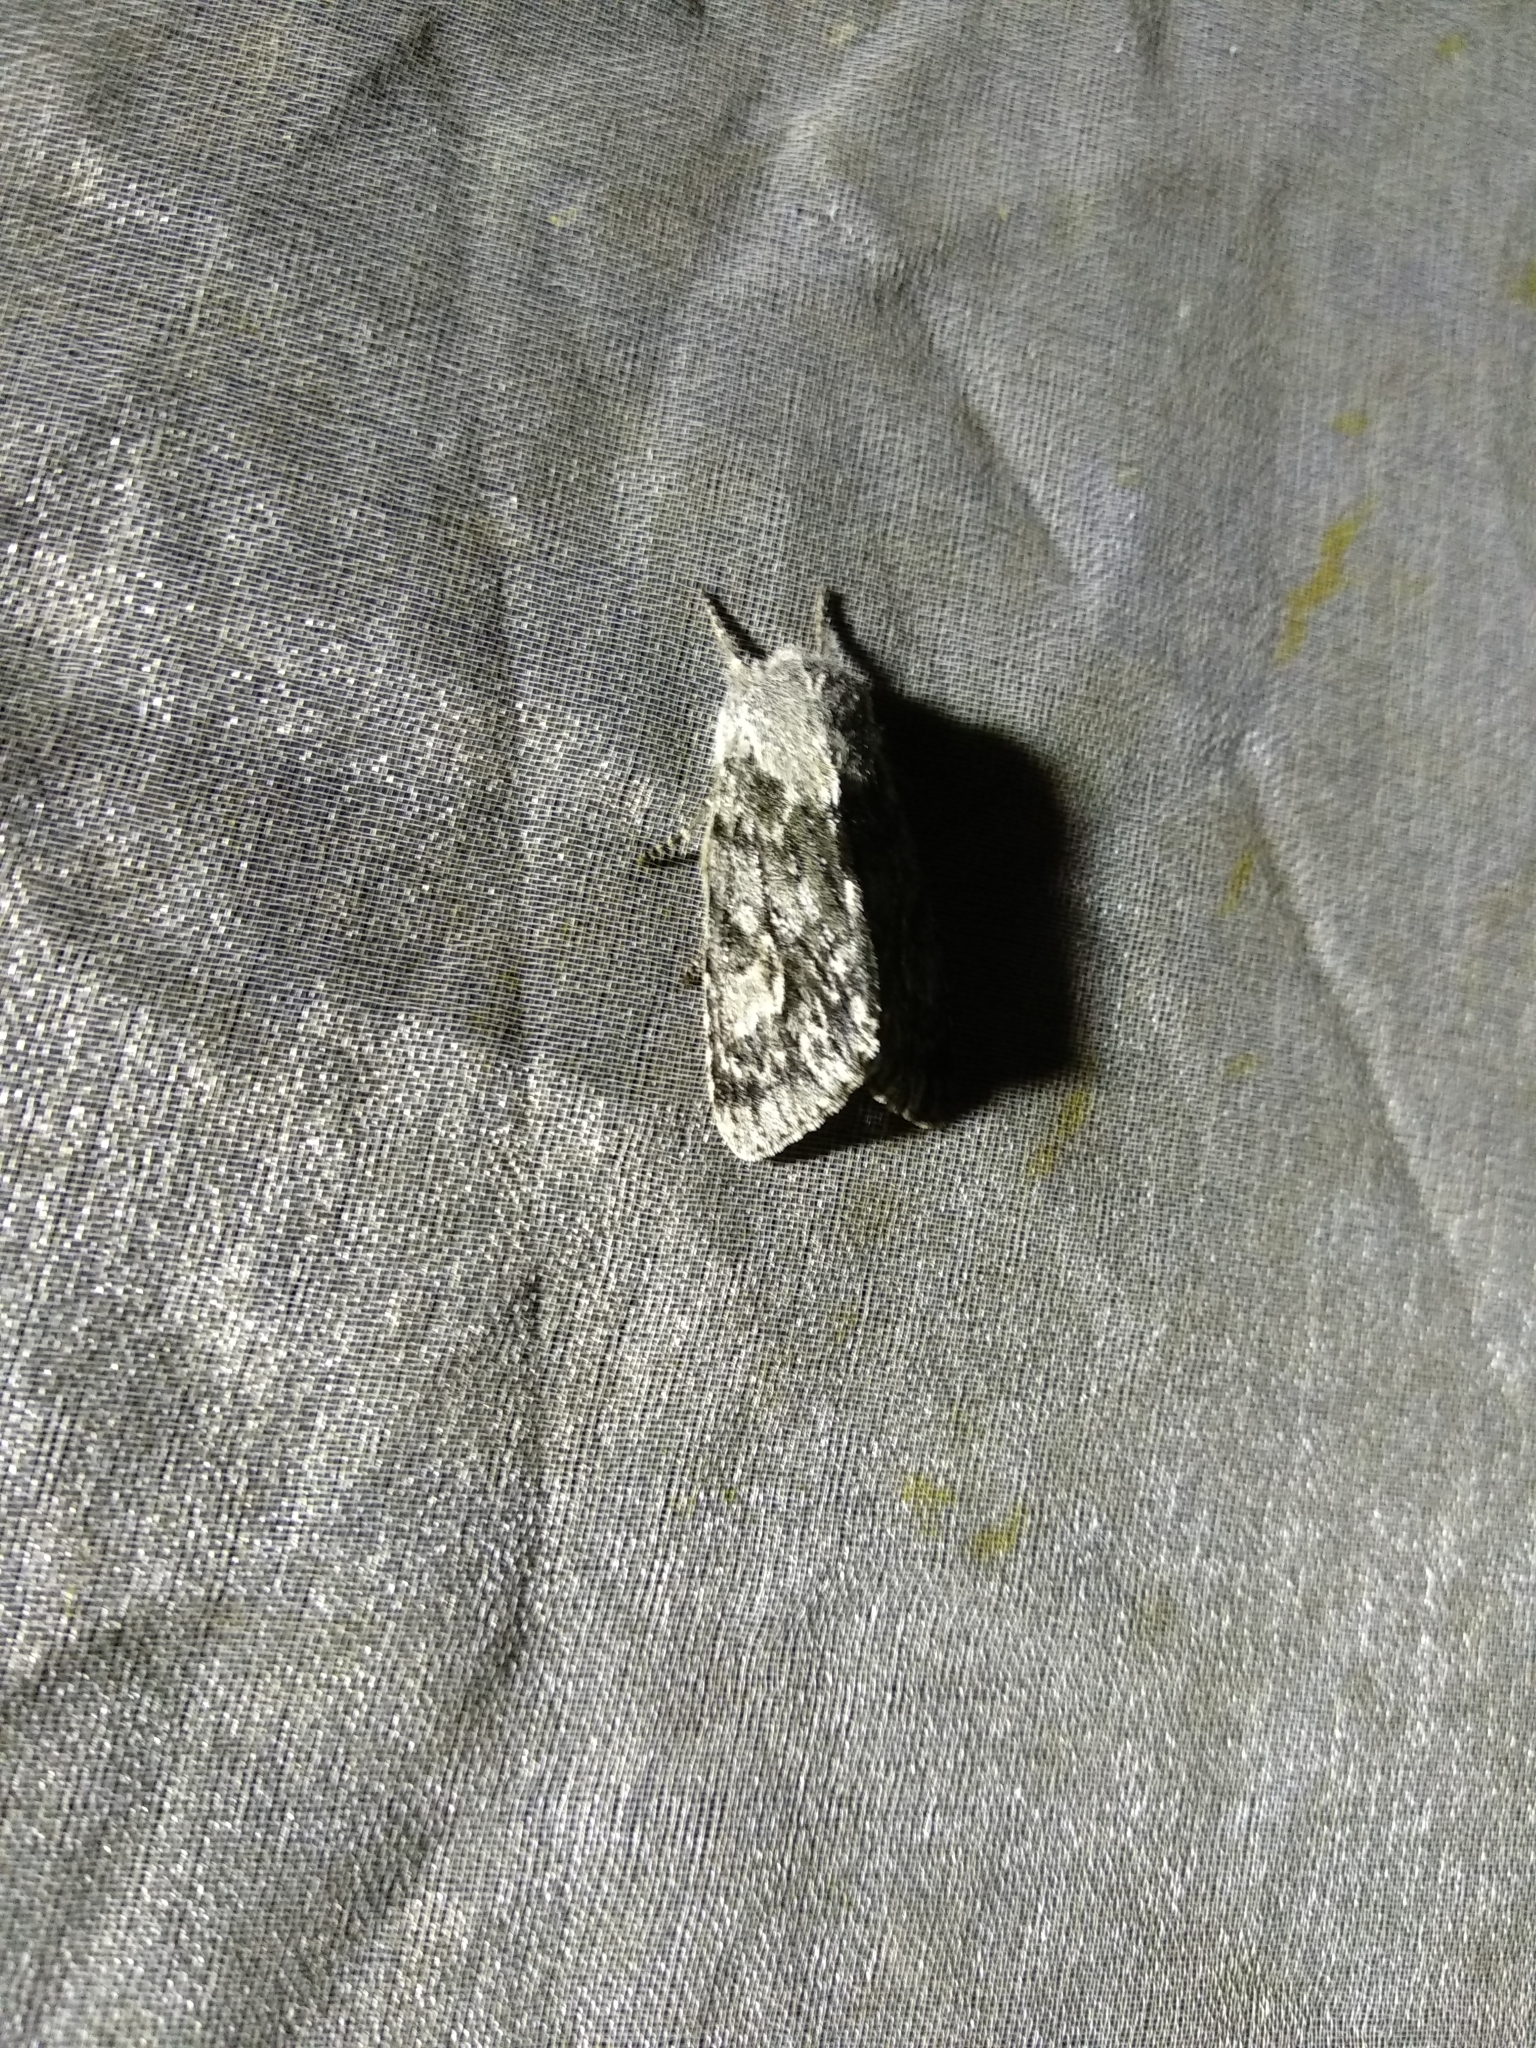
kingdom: Animalia
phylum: Arthropoda
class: Insecta
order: Lepidoptera
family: Noctuidae
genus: Brachionycha
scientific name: Brachionycha sajana
